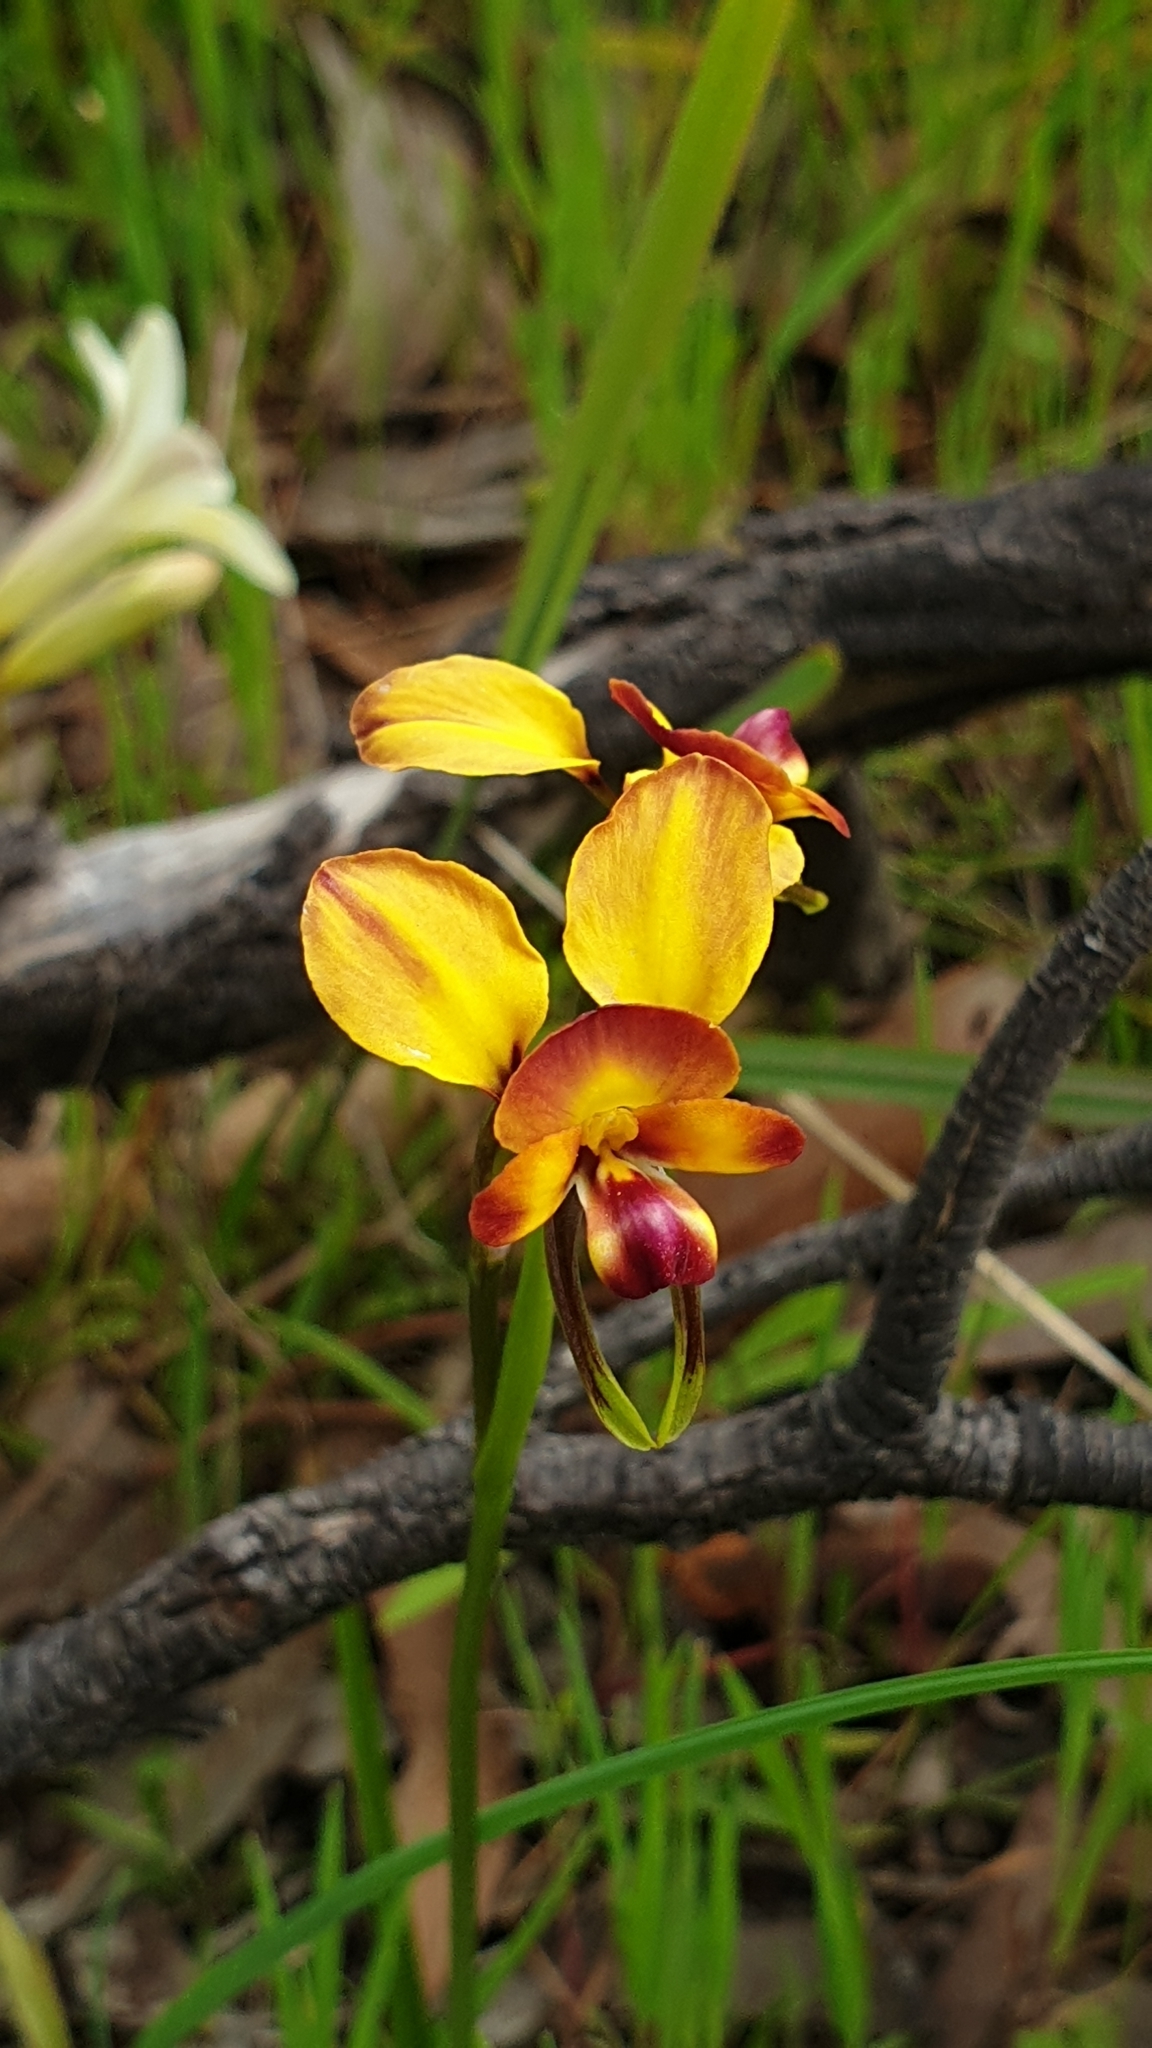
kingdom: Plantae
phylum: Tracheophyta
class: Liliopsida
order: Asparagales
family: Orchidaceae
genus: Diuris
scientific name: Diuris orientis
